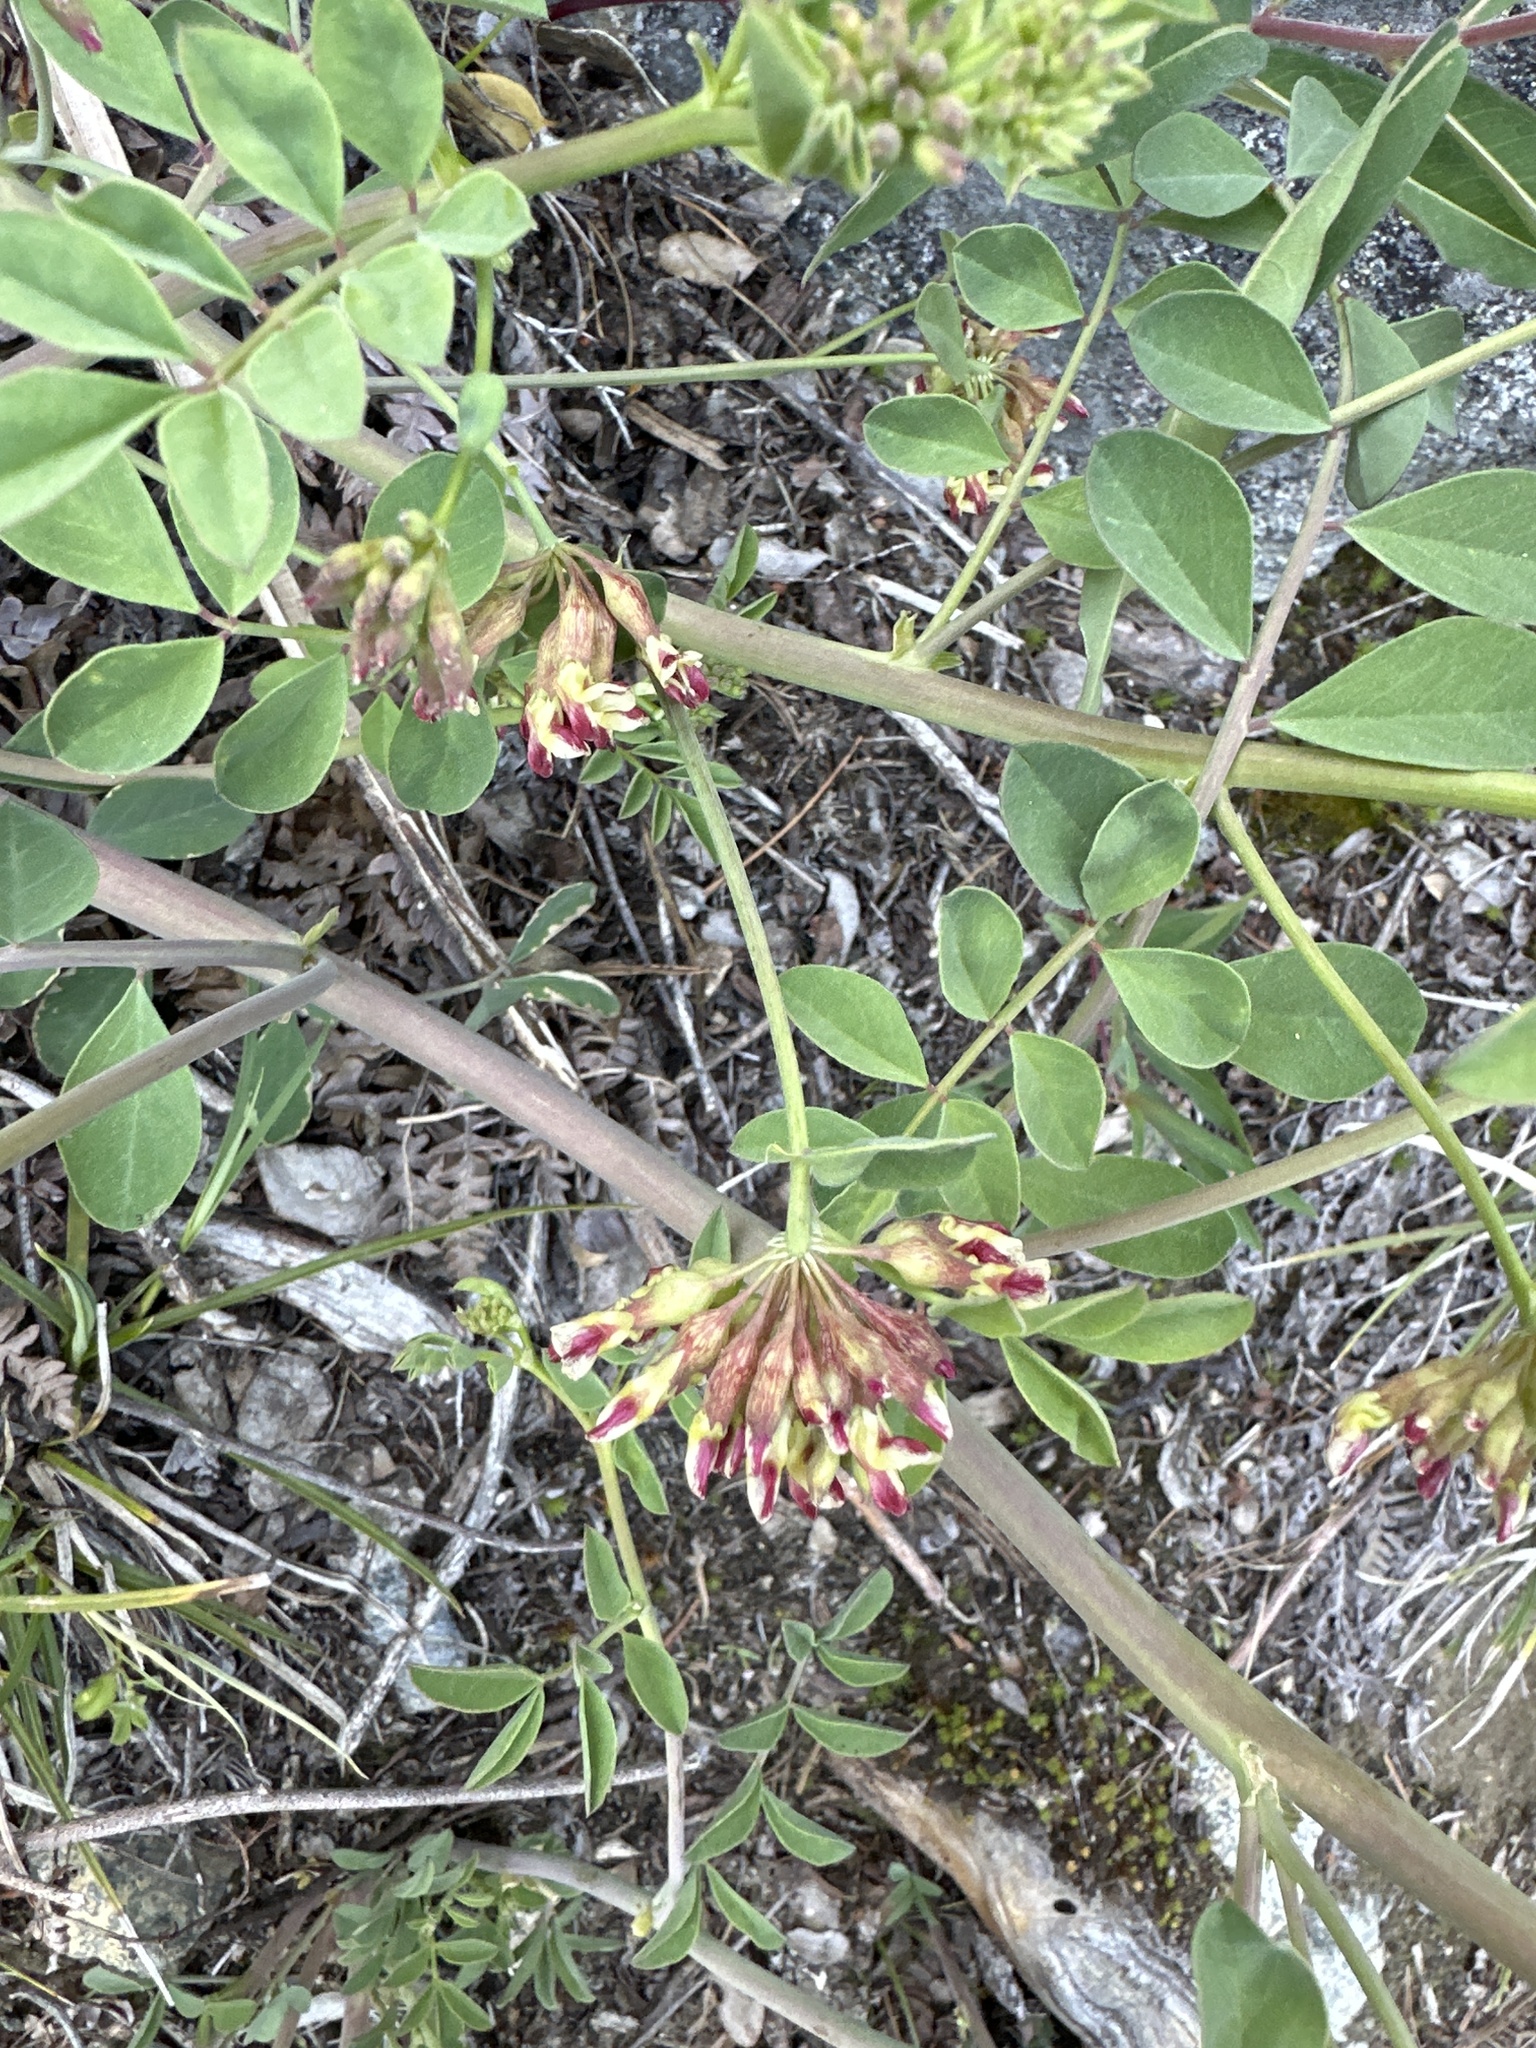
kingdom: Plantae
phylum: Tracheophyta
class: Magnoliopsida
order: Fabales
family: Fabaceae
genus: Hosackia
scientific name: Hosackia crassifolia
